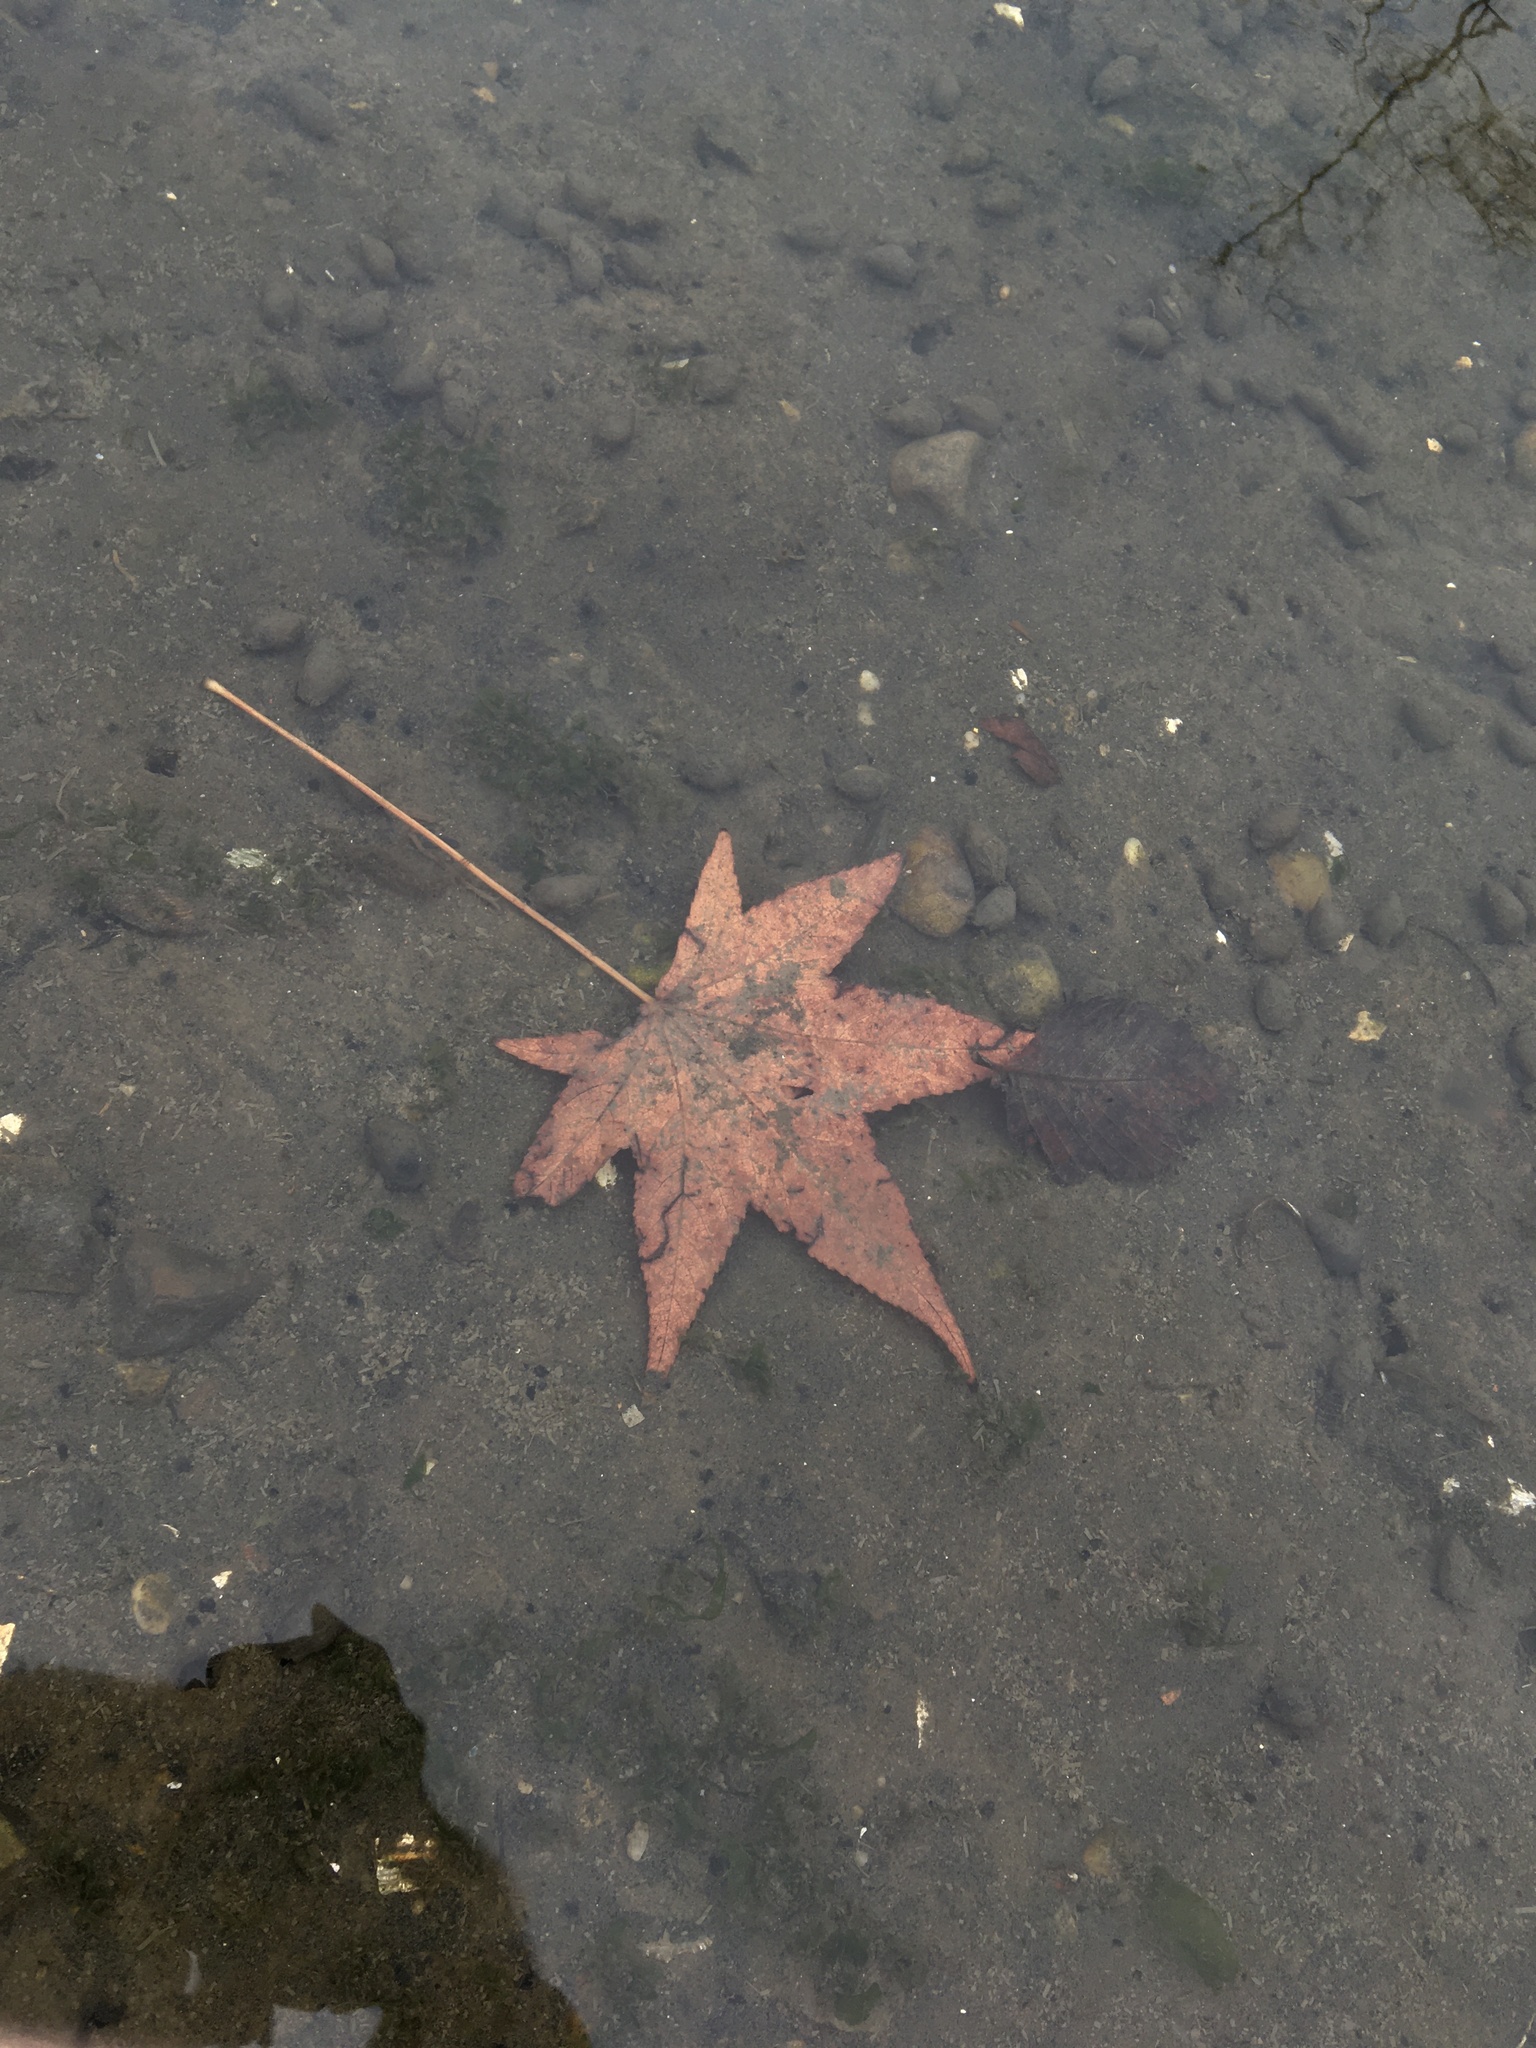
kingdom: Plantae
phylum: Tracheophyta
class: Magnoliopsida
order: Saxifragales
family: Altingiaceae
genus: Liquidambar
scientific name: Liquidambar styraciflua
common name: Sweet gum
